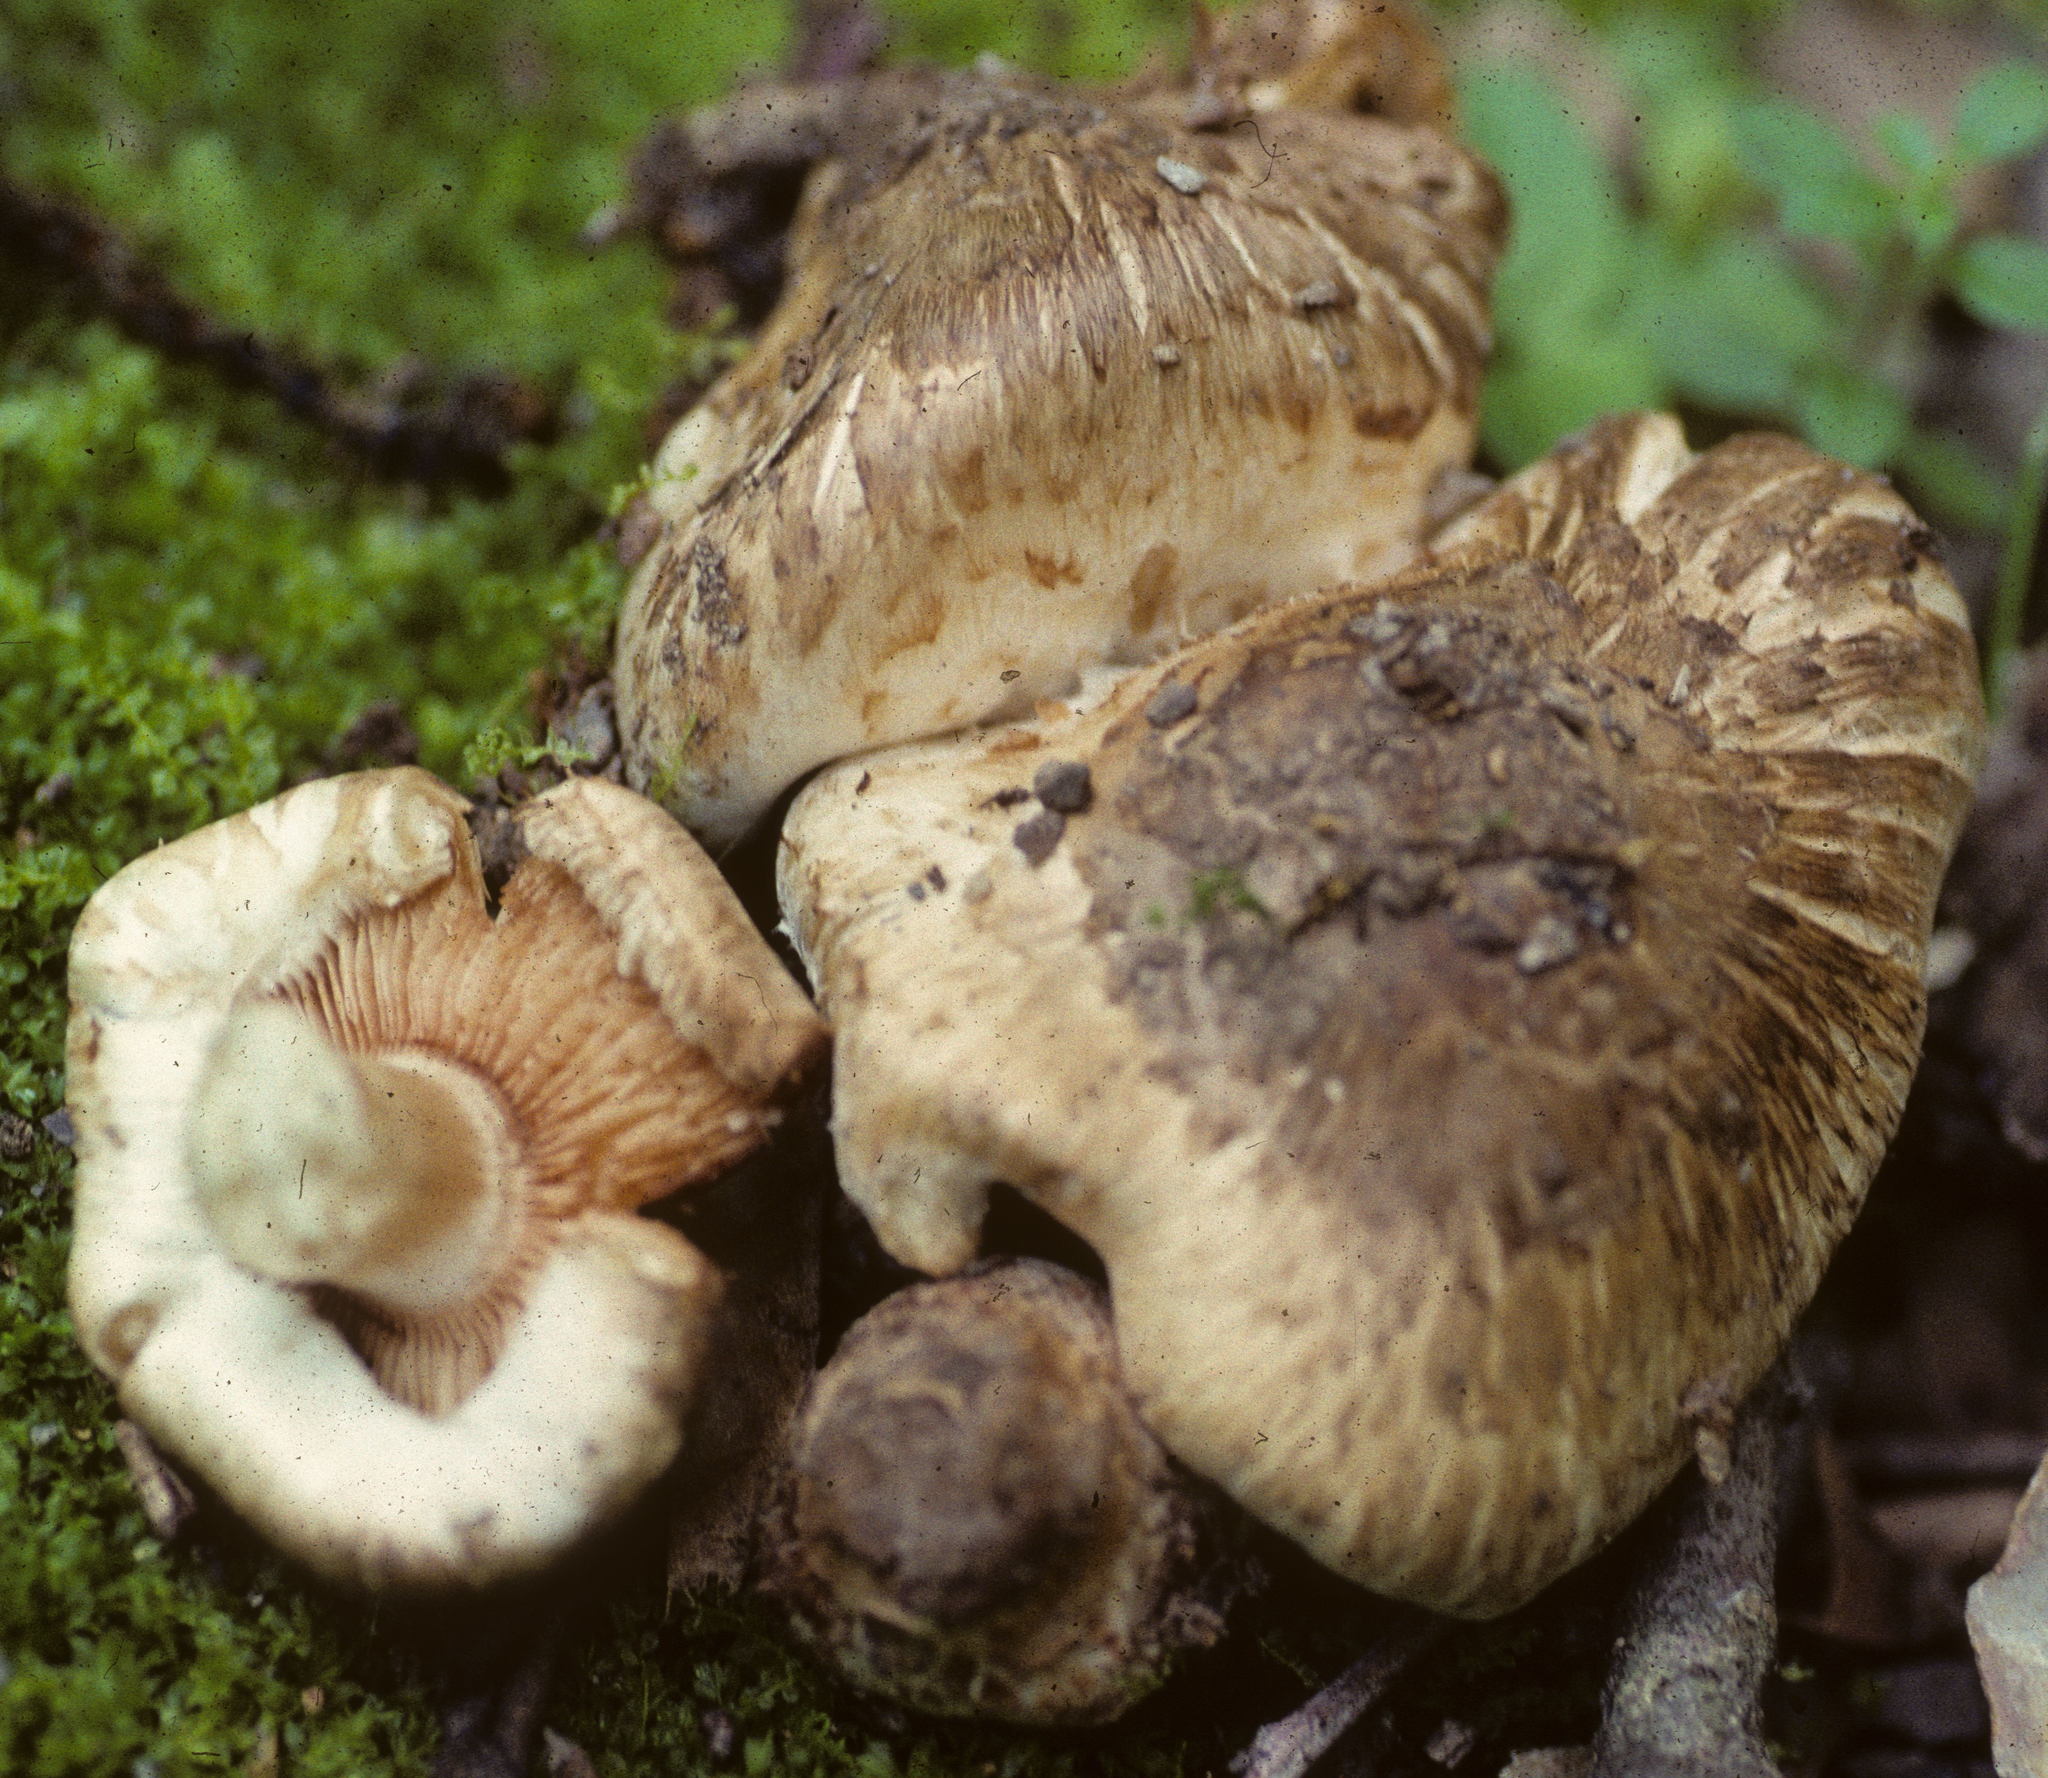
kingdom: Fungi
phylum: Basidiomycota
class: Agaricomycetes
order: Agaricales
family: Inocybaceae
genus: Inocybe
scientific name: Inocybe fraudans
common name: Pear fibrecap
